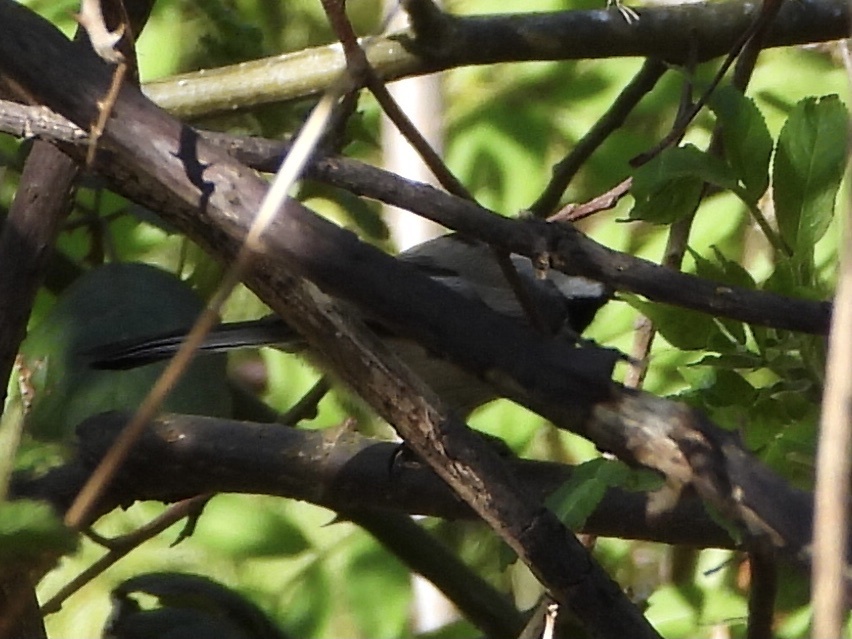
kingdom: Animalia
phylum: Chordata
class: Aves
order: Passeriformes
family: Paridae
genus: Poecile
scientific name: Poecile atricapillus
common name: Black-capped chickadee
